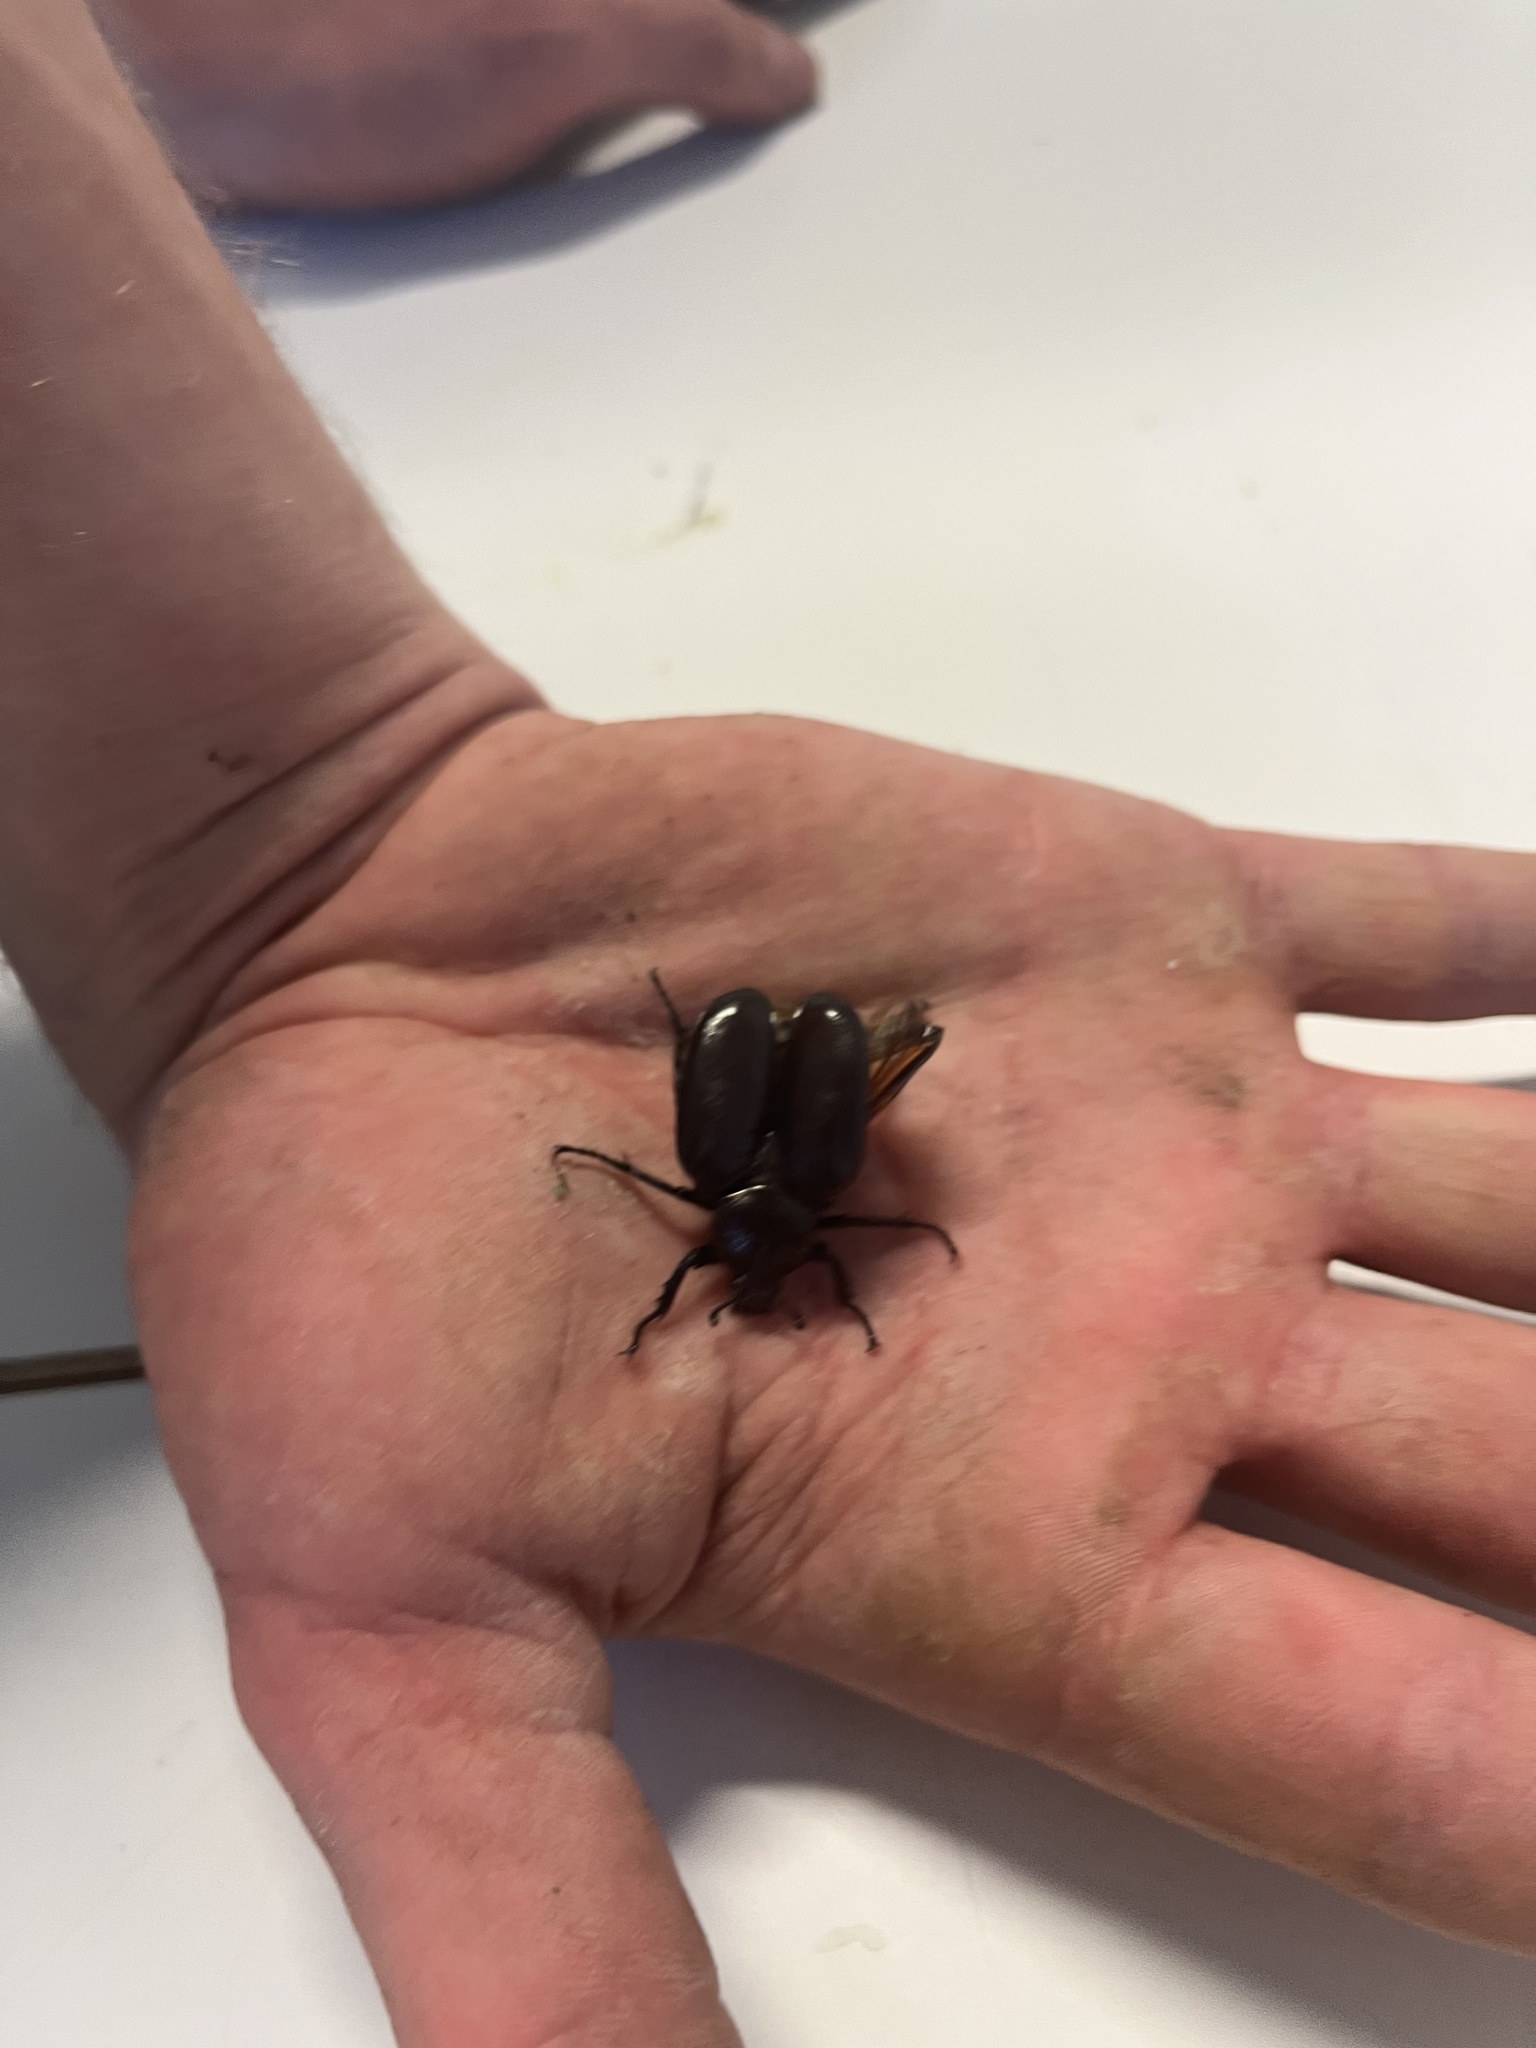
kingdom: Animalia
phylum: Arthropoda
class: Insecta
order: Coleoptera
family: Scarabaeidae
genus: Osmoderma
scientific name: Osmoderma eremita
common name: Hermit beetle
